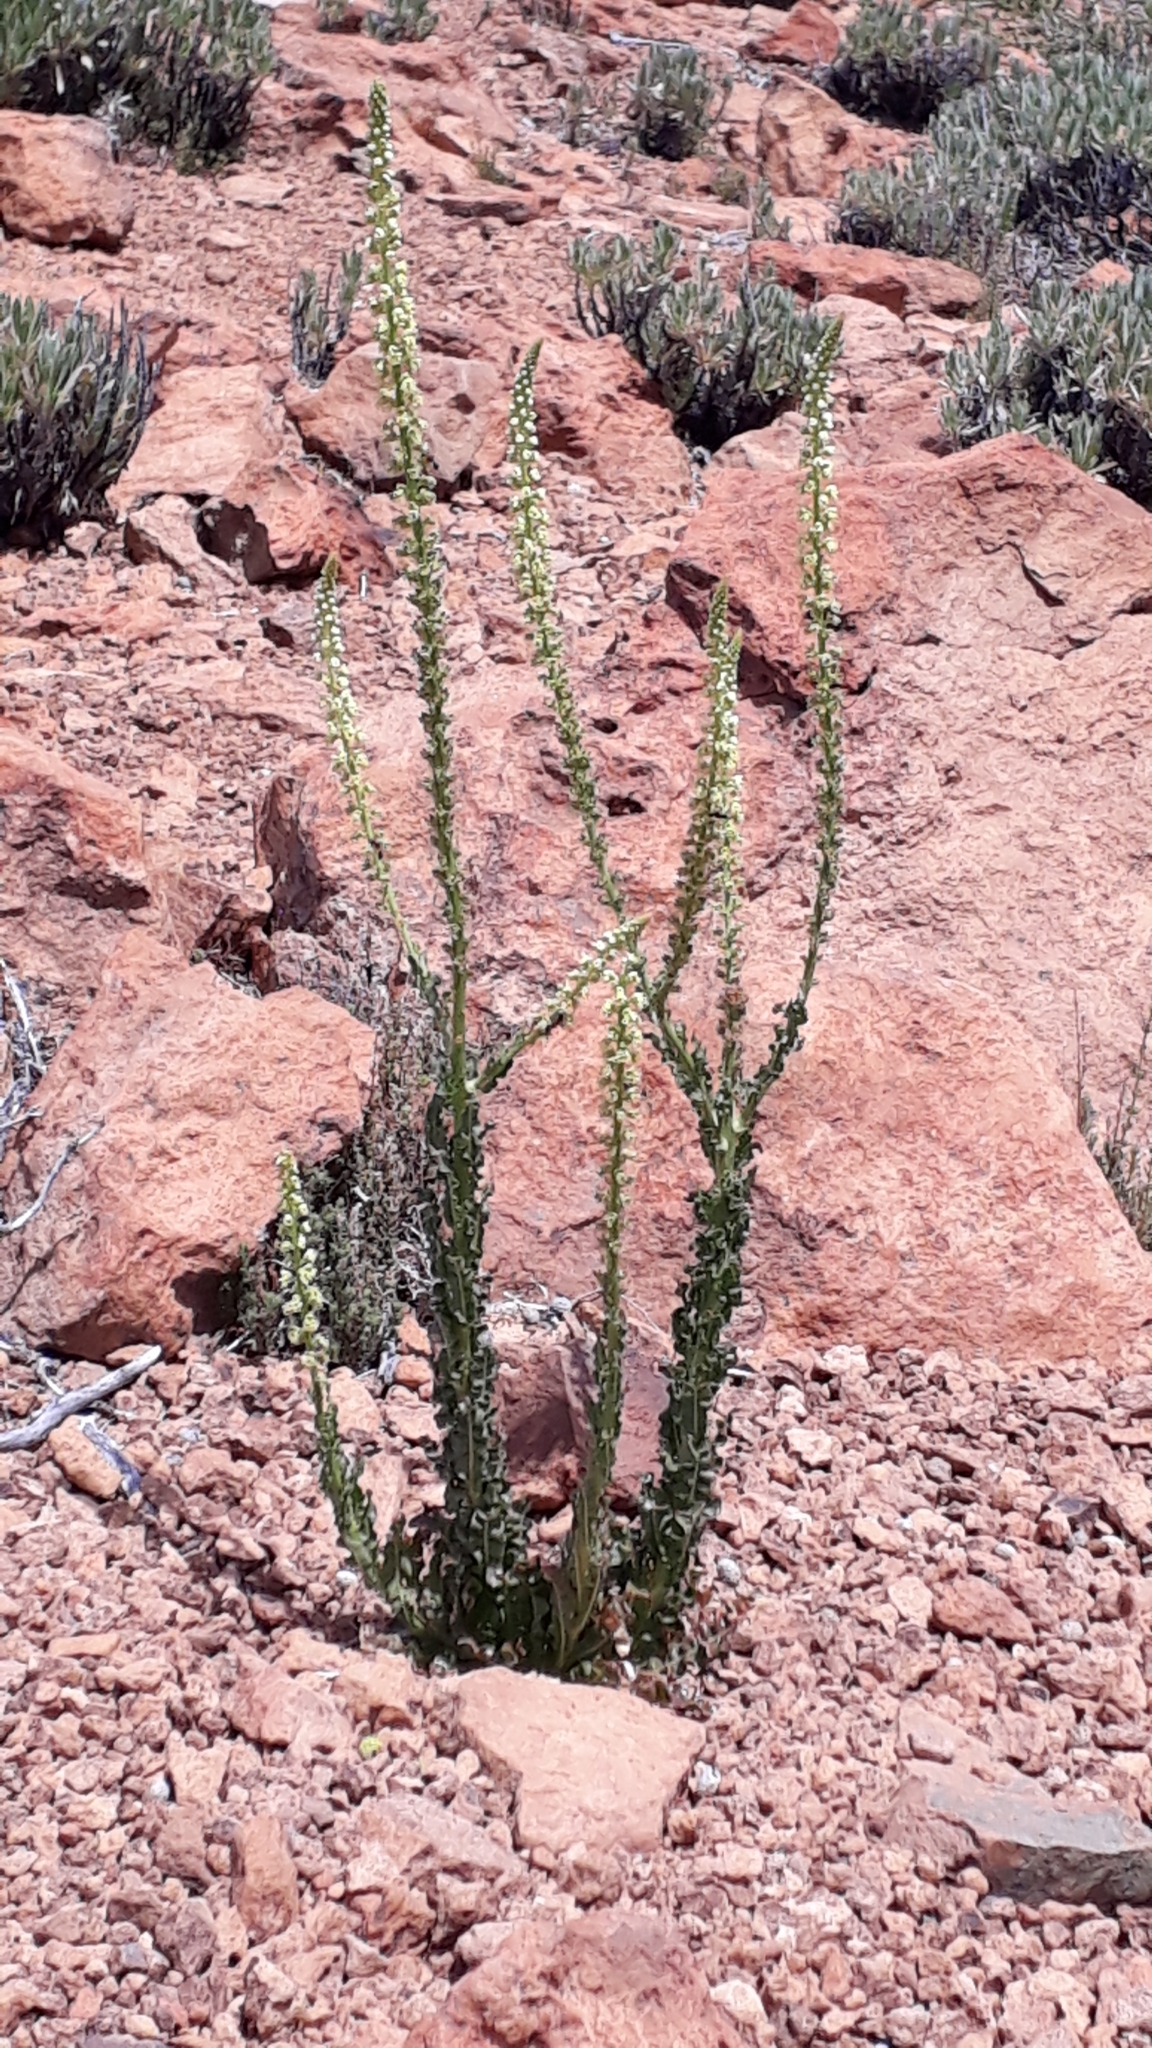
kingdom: Plantae
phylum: Tracheophyta
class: Magnoliopsida
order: Brassicales
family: Resedaceae
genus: Reseda
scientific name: Reseda luteola
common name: Weld
